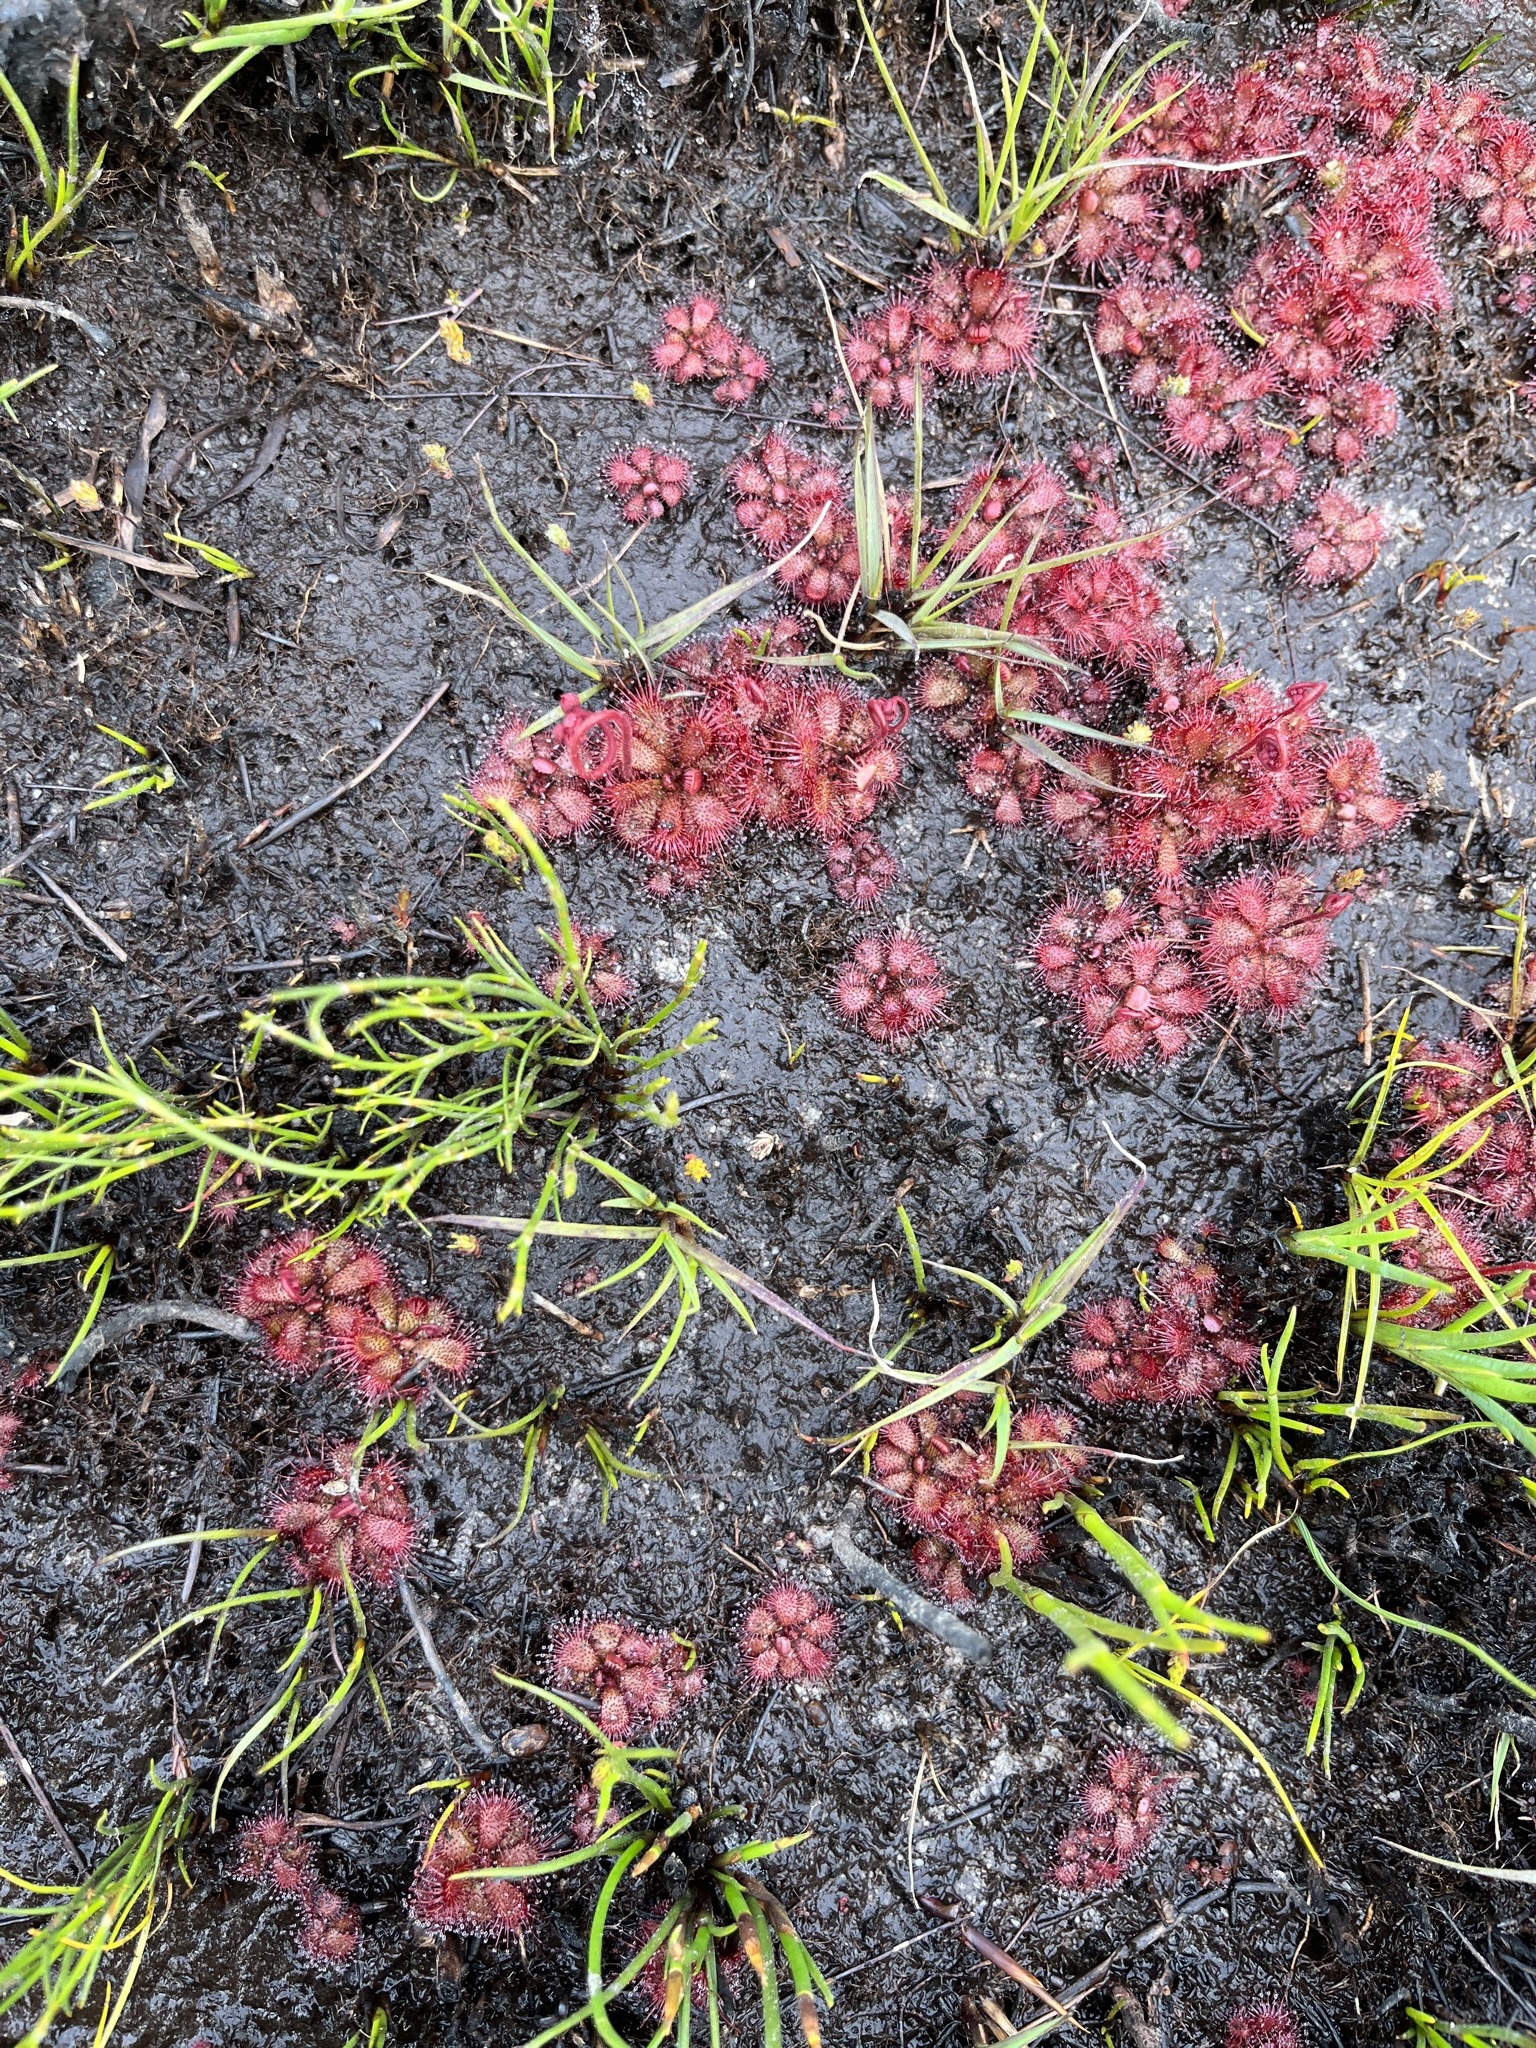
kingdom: Plantae
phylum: Tracheophyta
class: Magnoliopsida
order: Caryophyllales
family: Droseraceae
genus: Drosera
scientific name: Drosera cuneifolia
